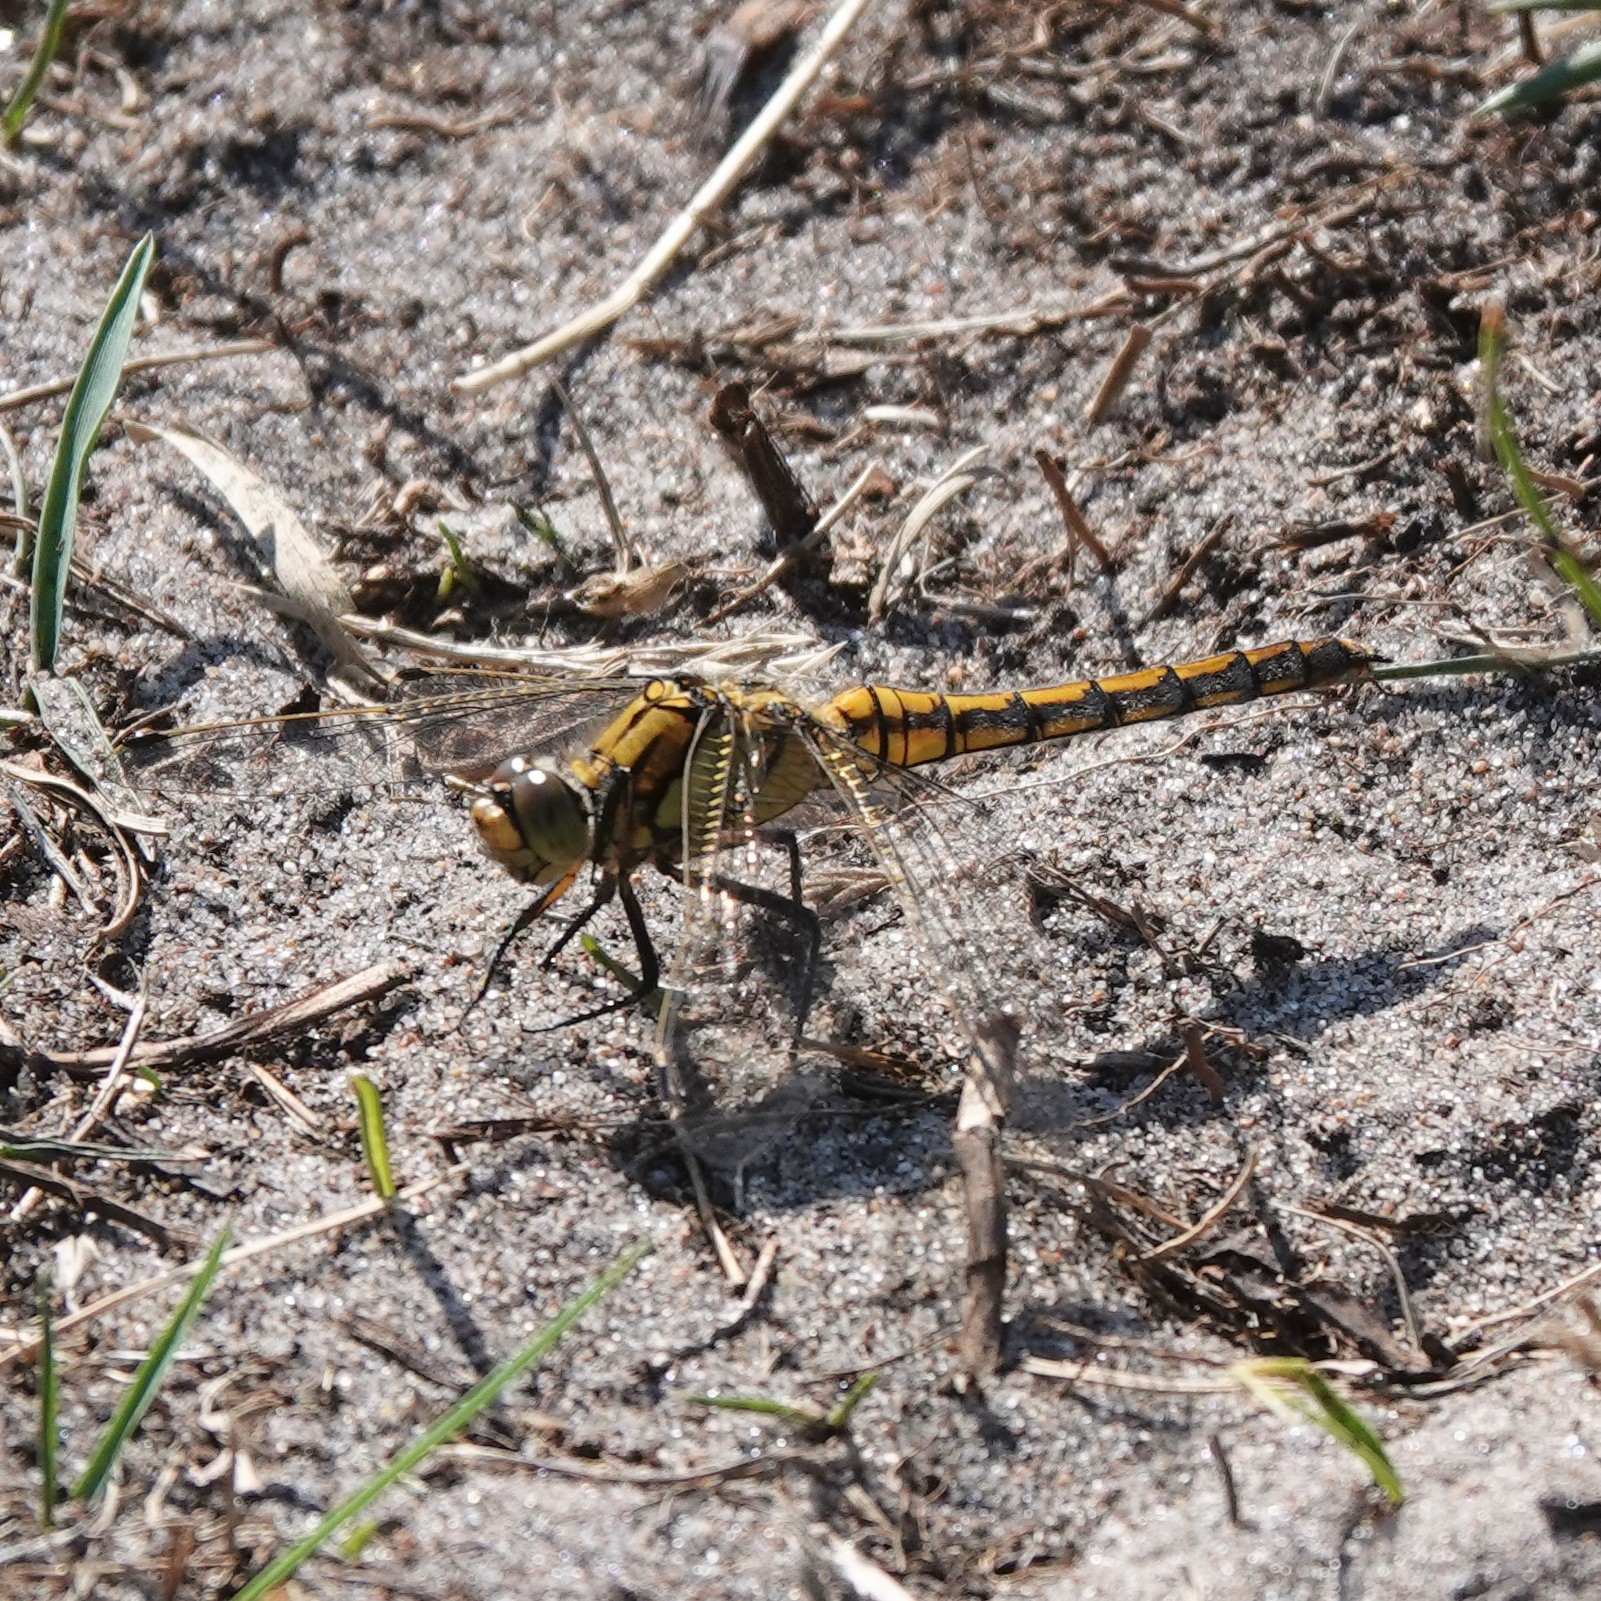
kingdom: Animalia
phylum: Arthropoda
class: Insecta
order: Odonata
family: Libellulidae
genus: Orthetrum
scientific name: Orthetrum cancellatum
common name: Black-tailed skimmer
